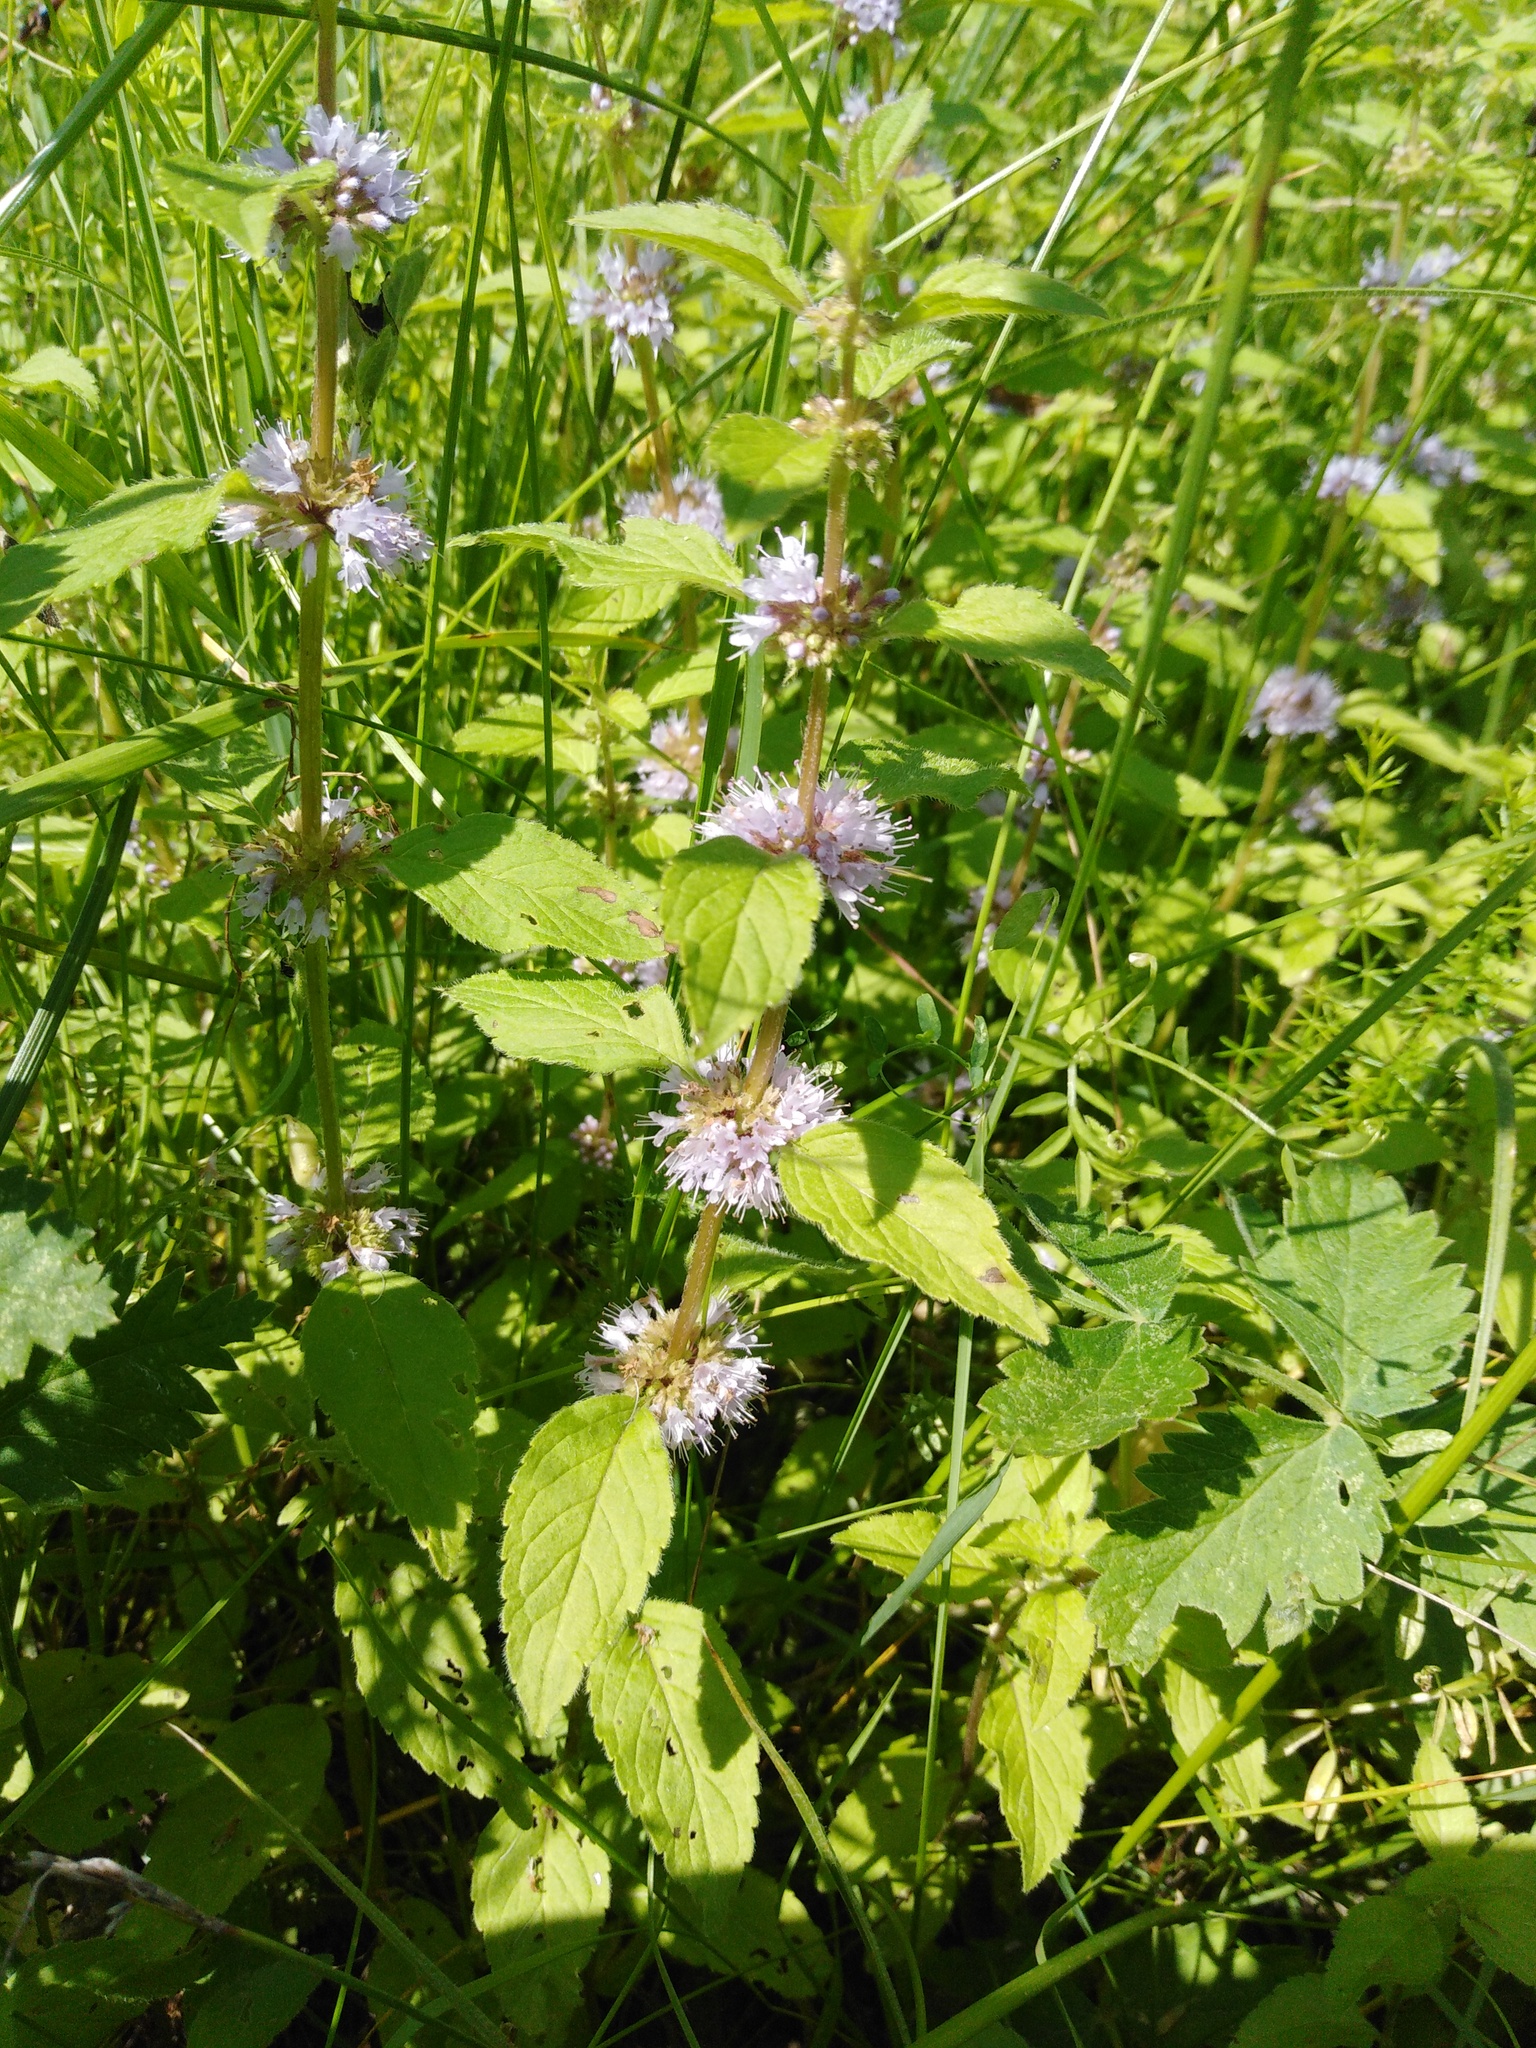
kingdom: Plantae
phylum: Tracheophyta
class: Magnoliopsida
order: Lamiales
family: Lamiaceae
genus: Mentha
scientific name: Mentha arvensis
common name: Corn mint
